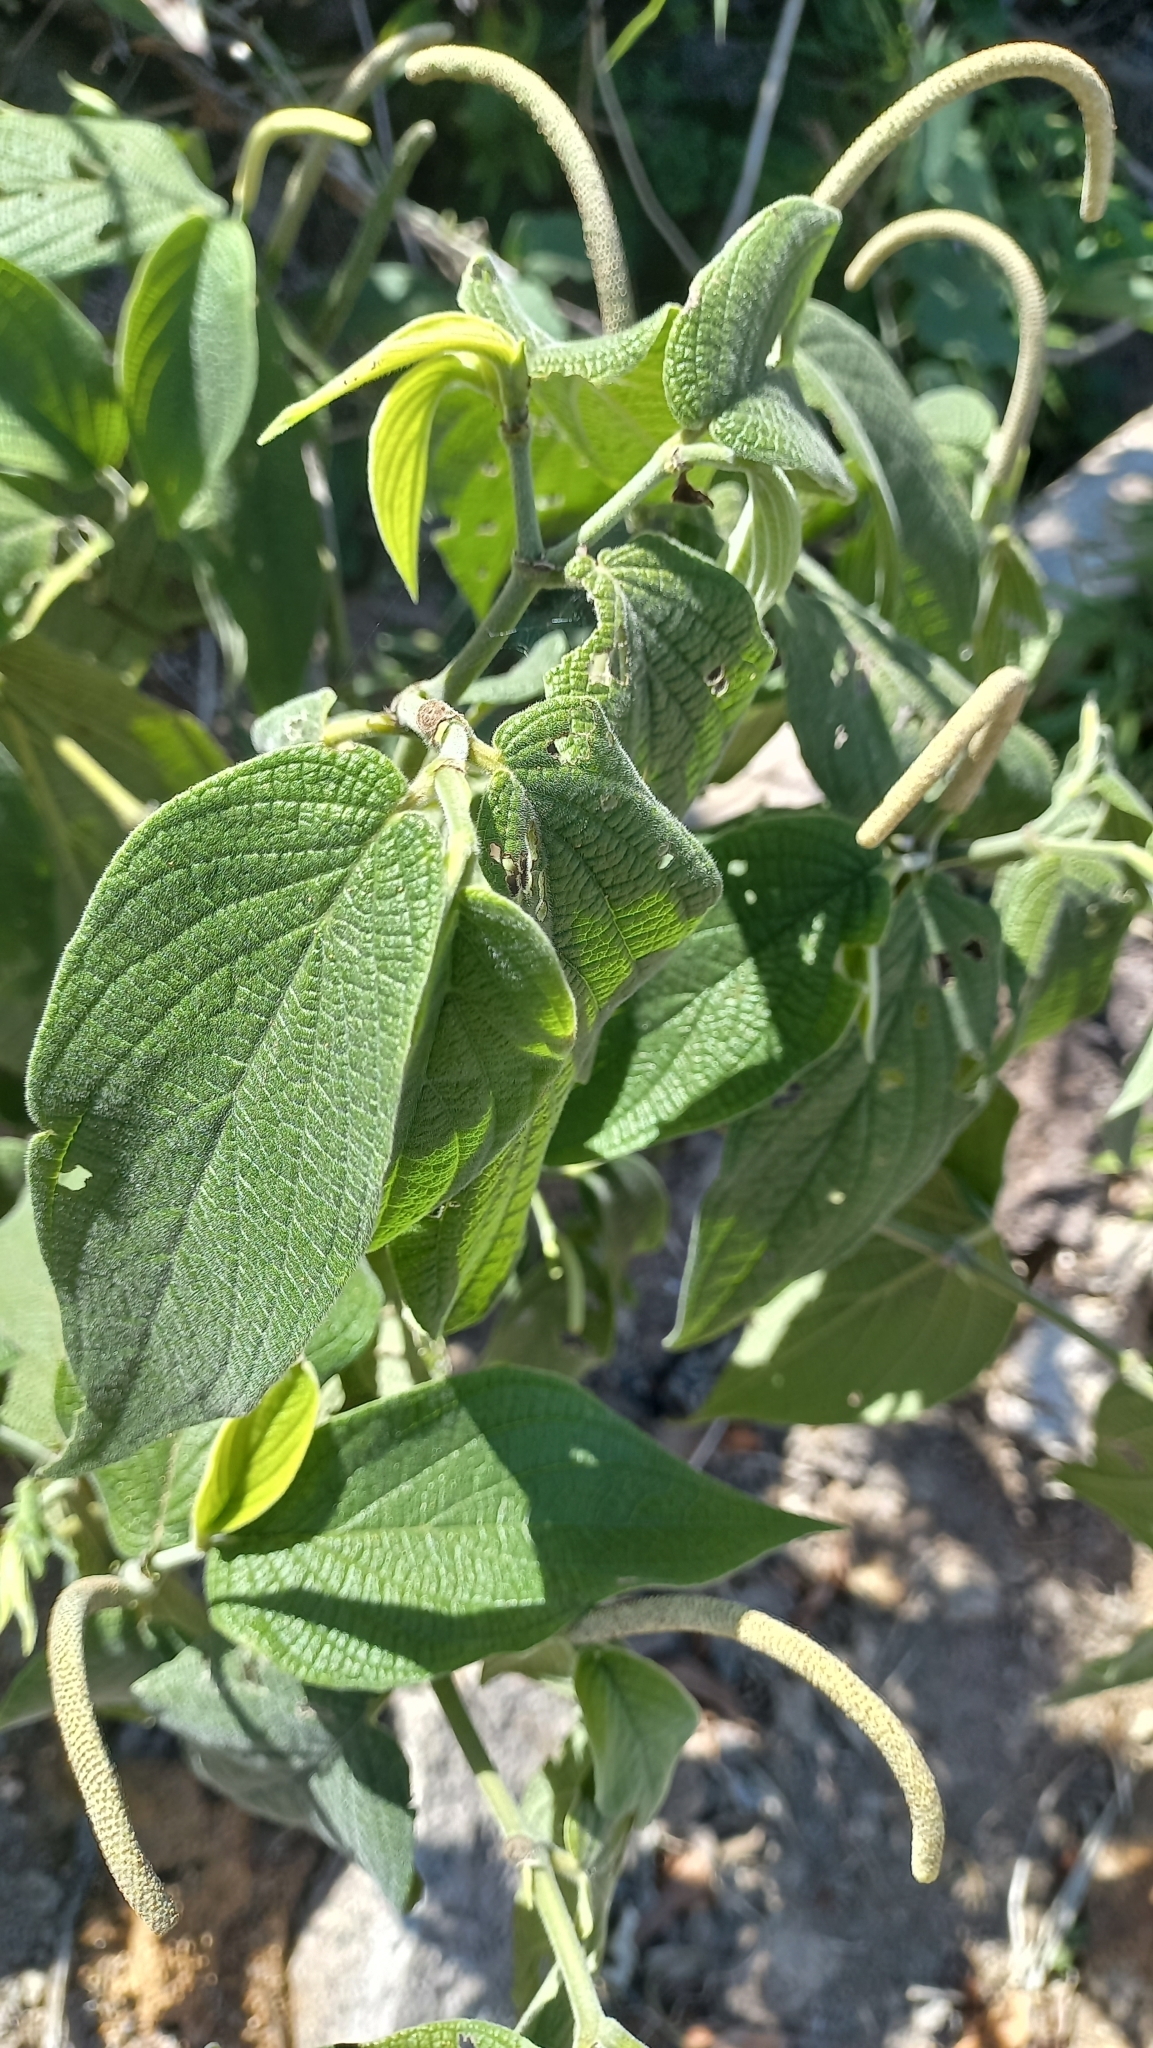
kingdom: Plantae
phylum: Tracheophyta
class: Magnoliopsida
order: Piperales
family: Piperaceae
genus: Piper
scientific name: Piper mollicomum
